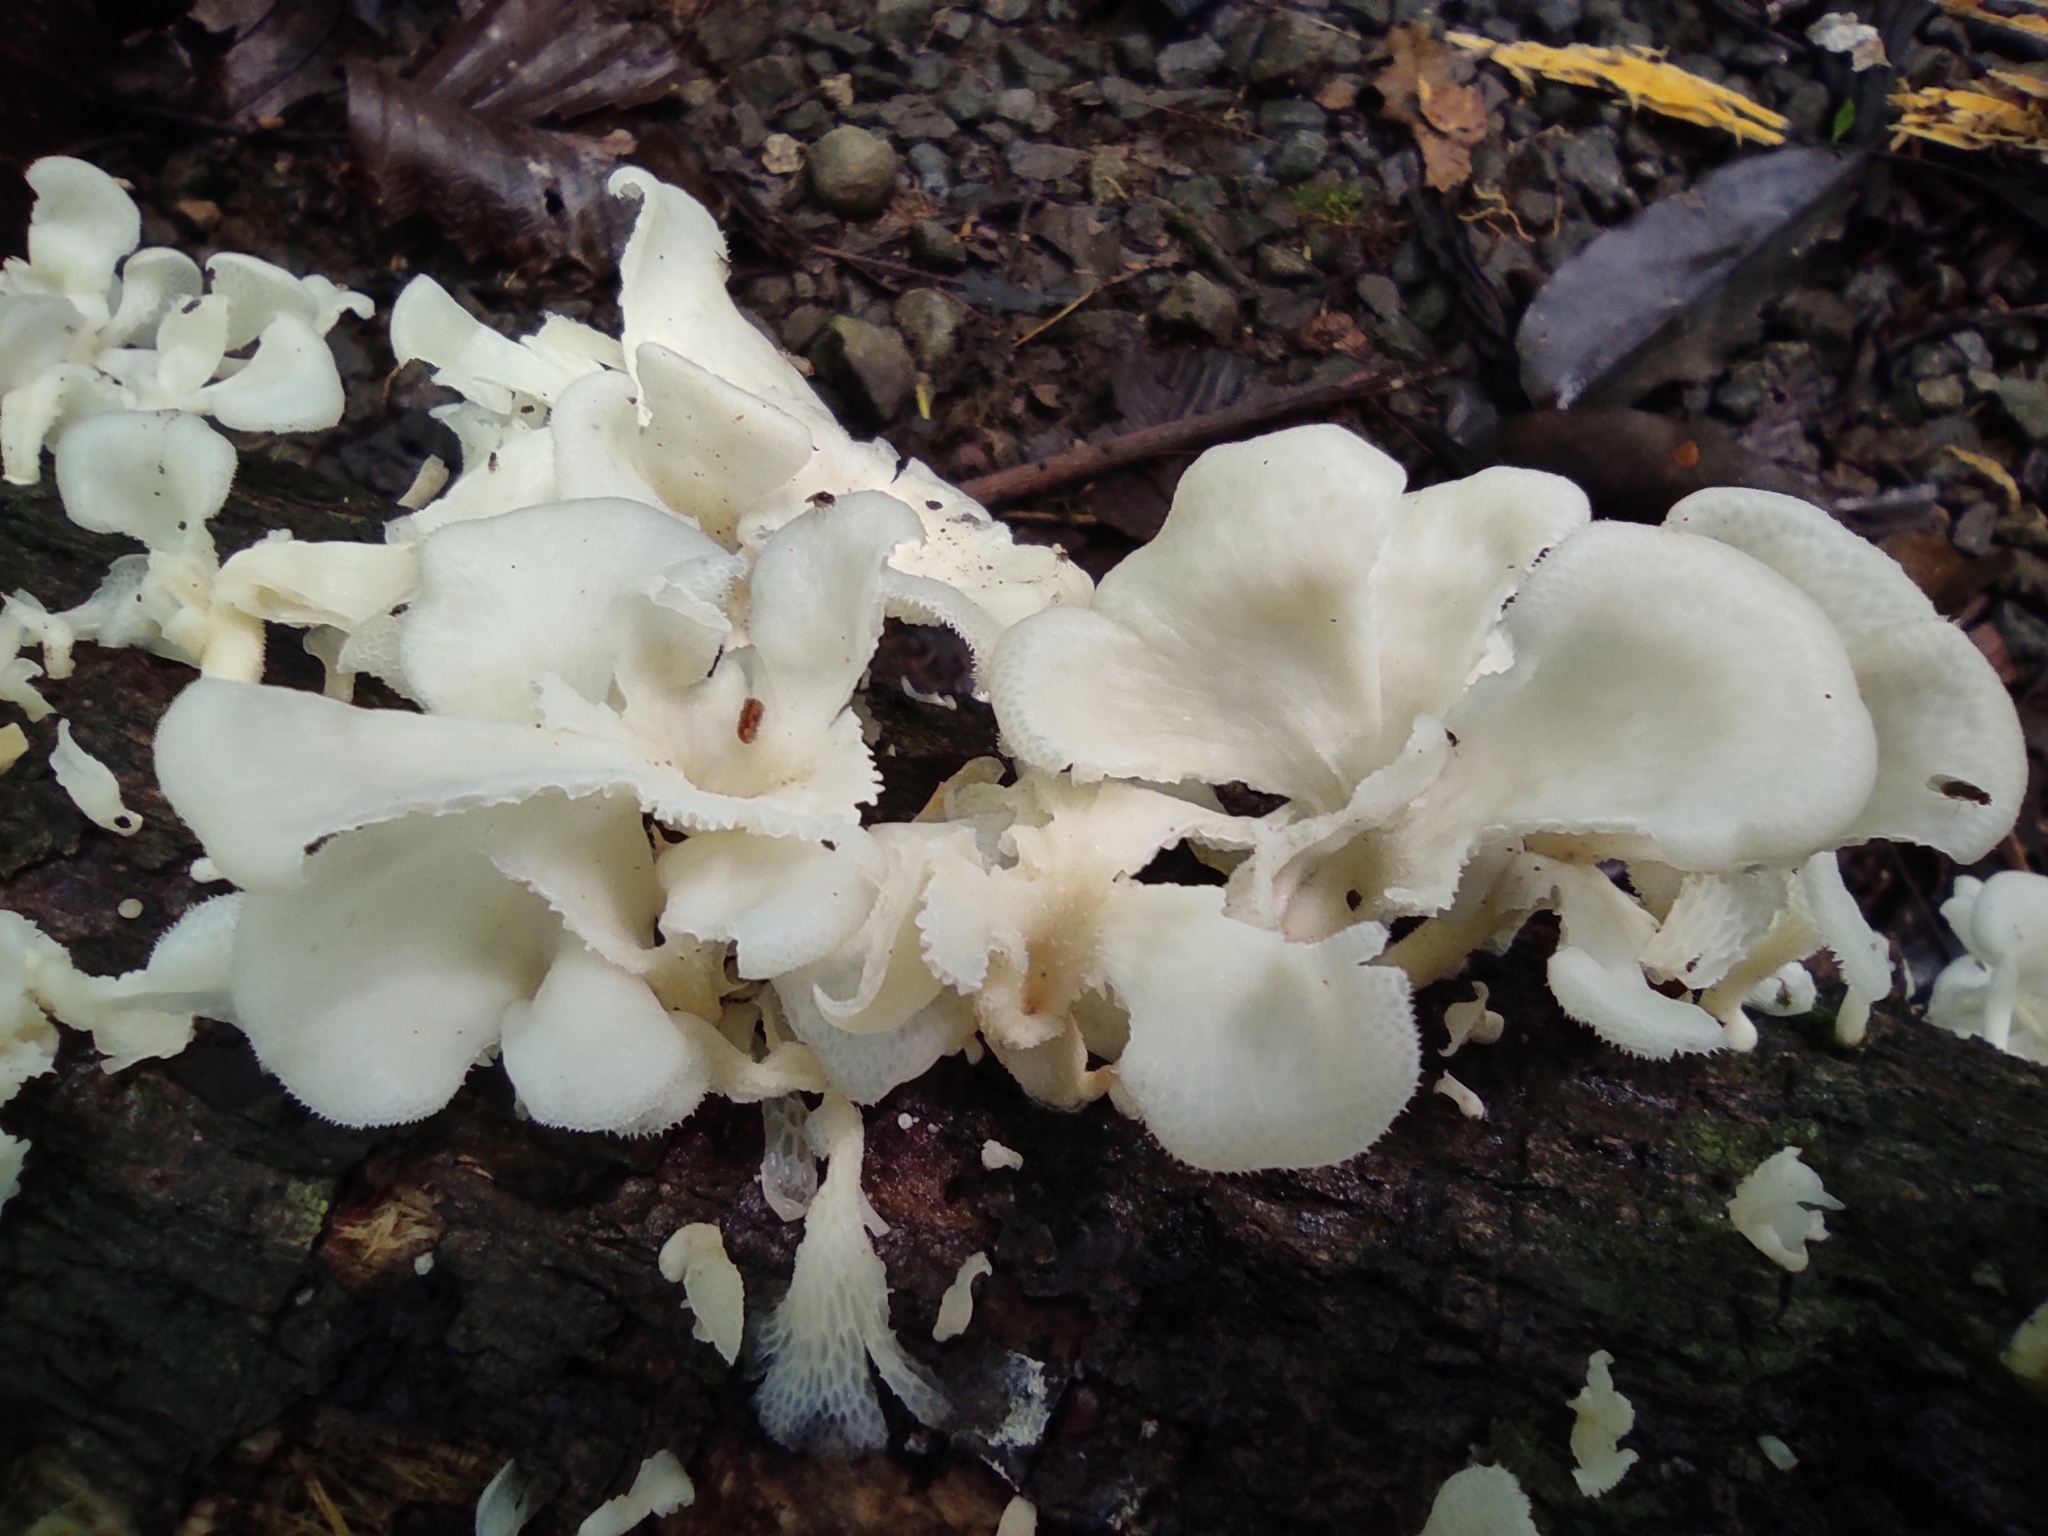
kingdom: Fungi
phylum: Basidiomycota
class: Agaricomycetes
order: Polyporales
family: Polyporaceae
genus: Favolus
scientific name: Favolus tenuiculus
